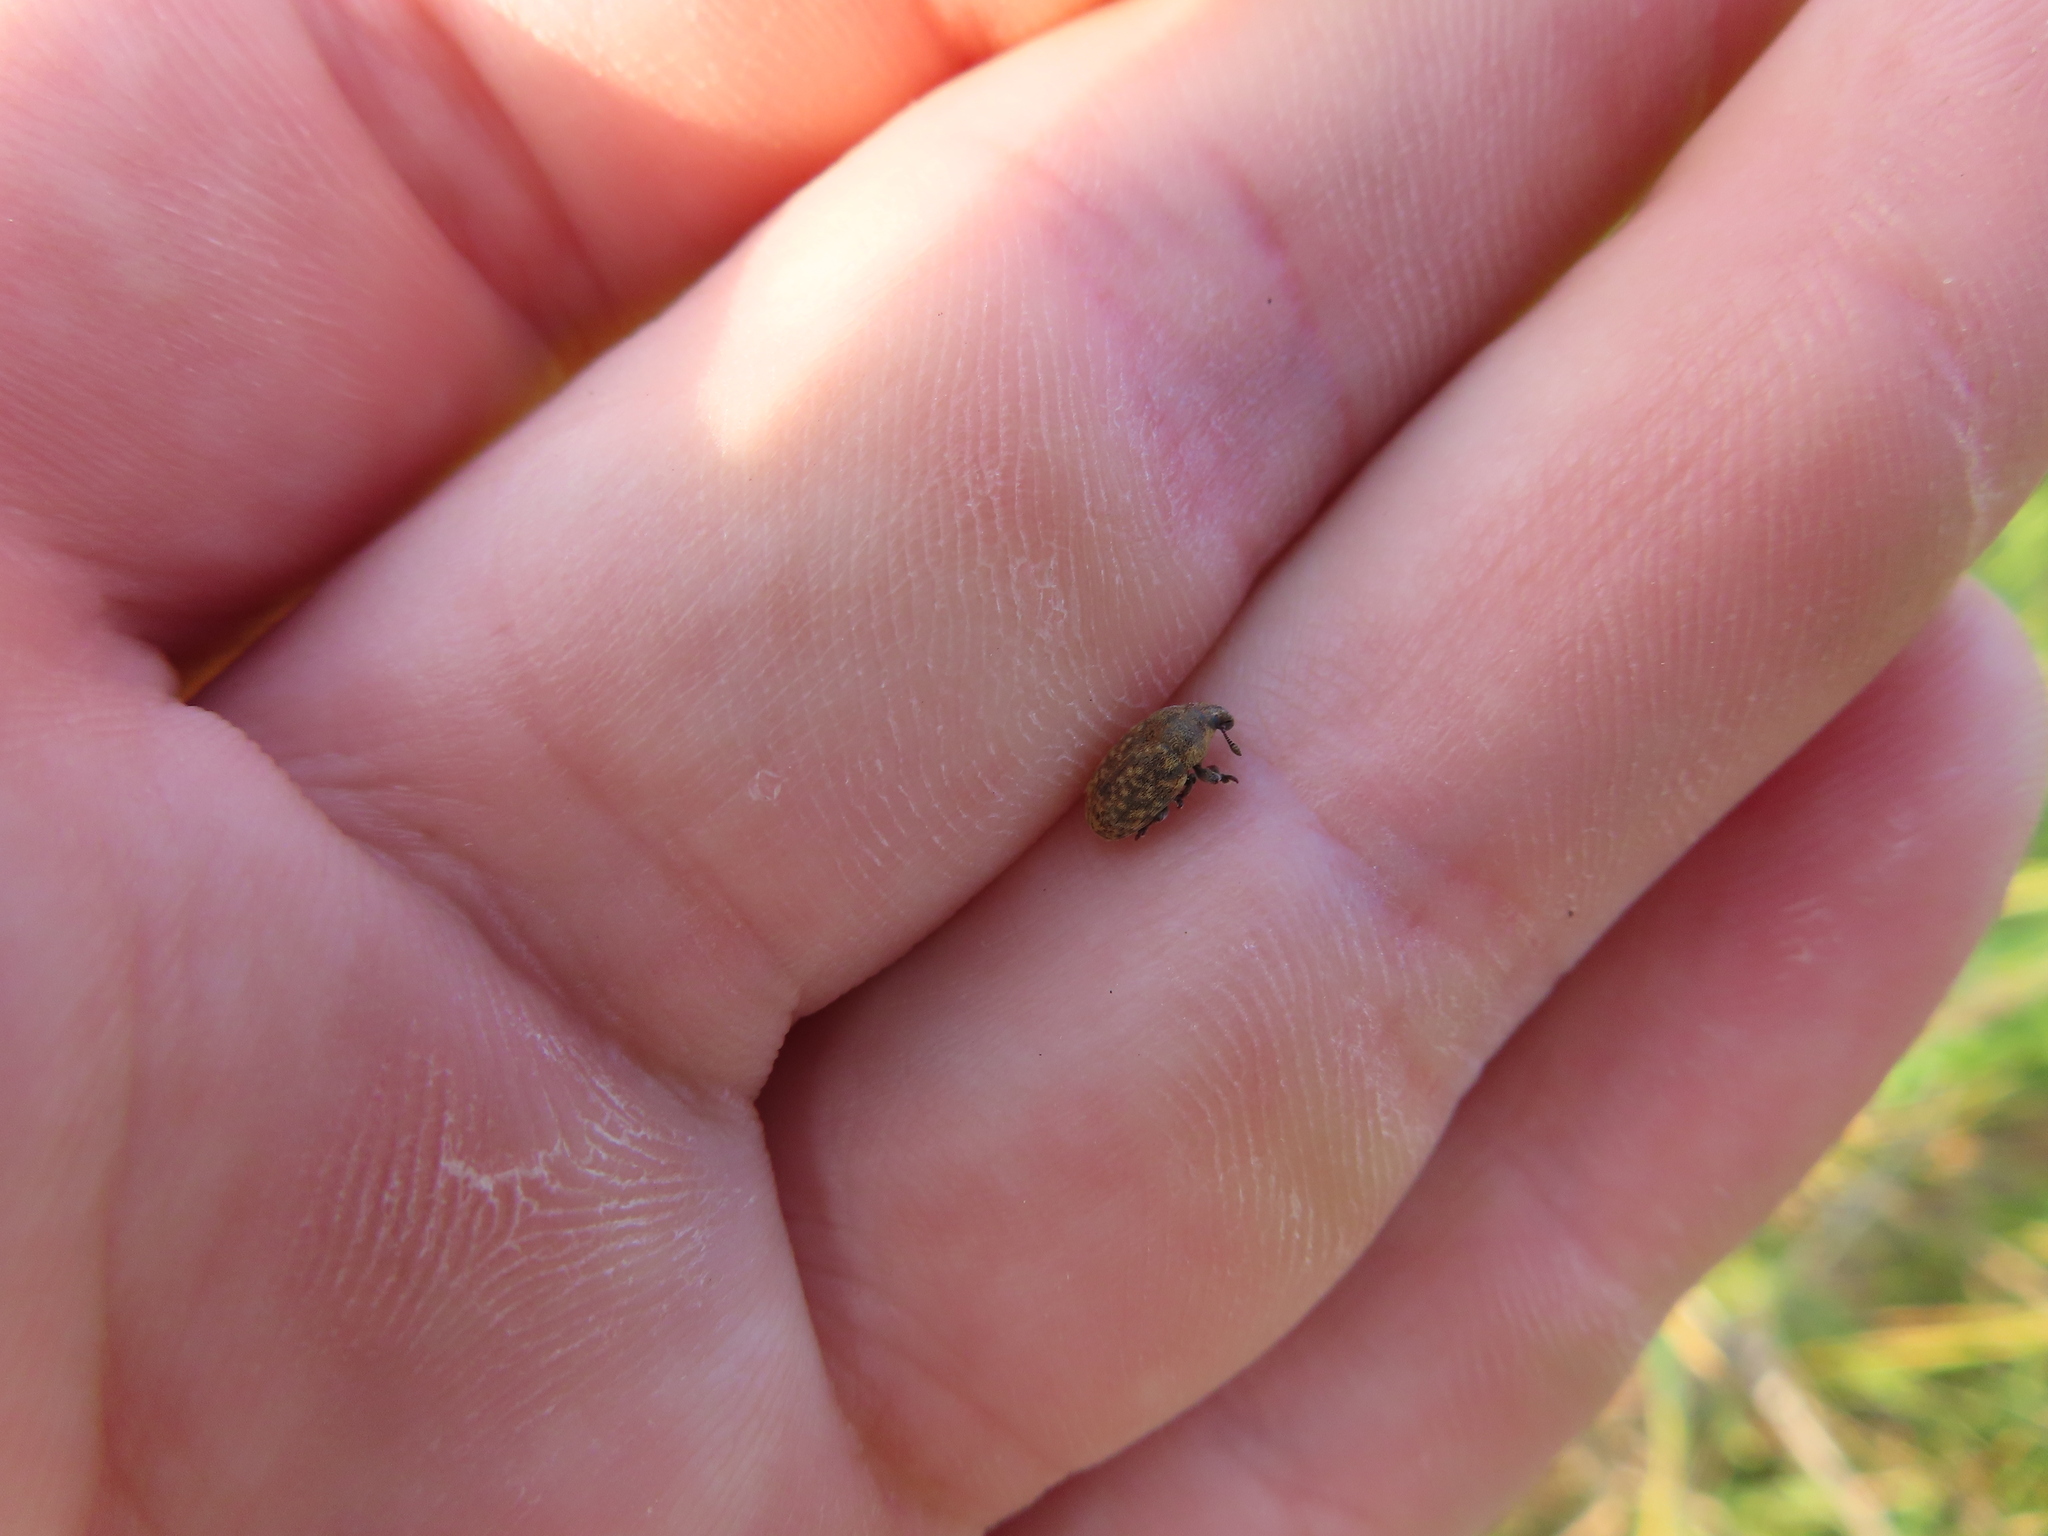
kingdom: Animalia
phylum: Arthropoda
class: Insecta
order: Coleoptera
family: Curculionidae
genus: Larinus
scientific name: Larinus obtusus
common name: Weevil
